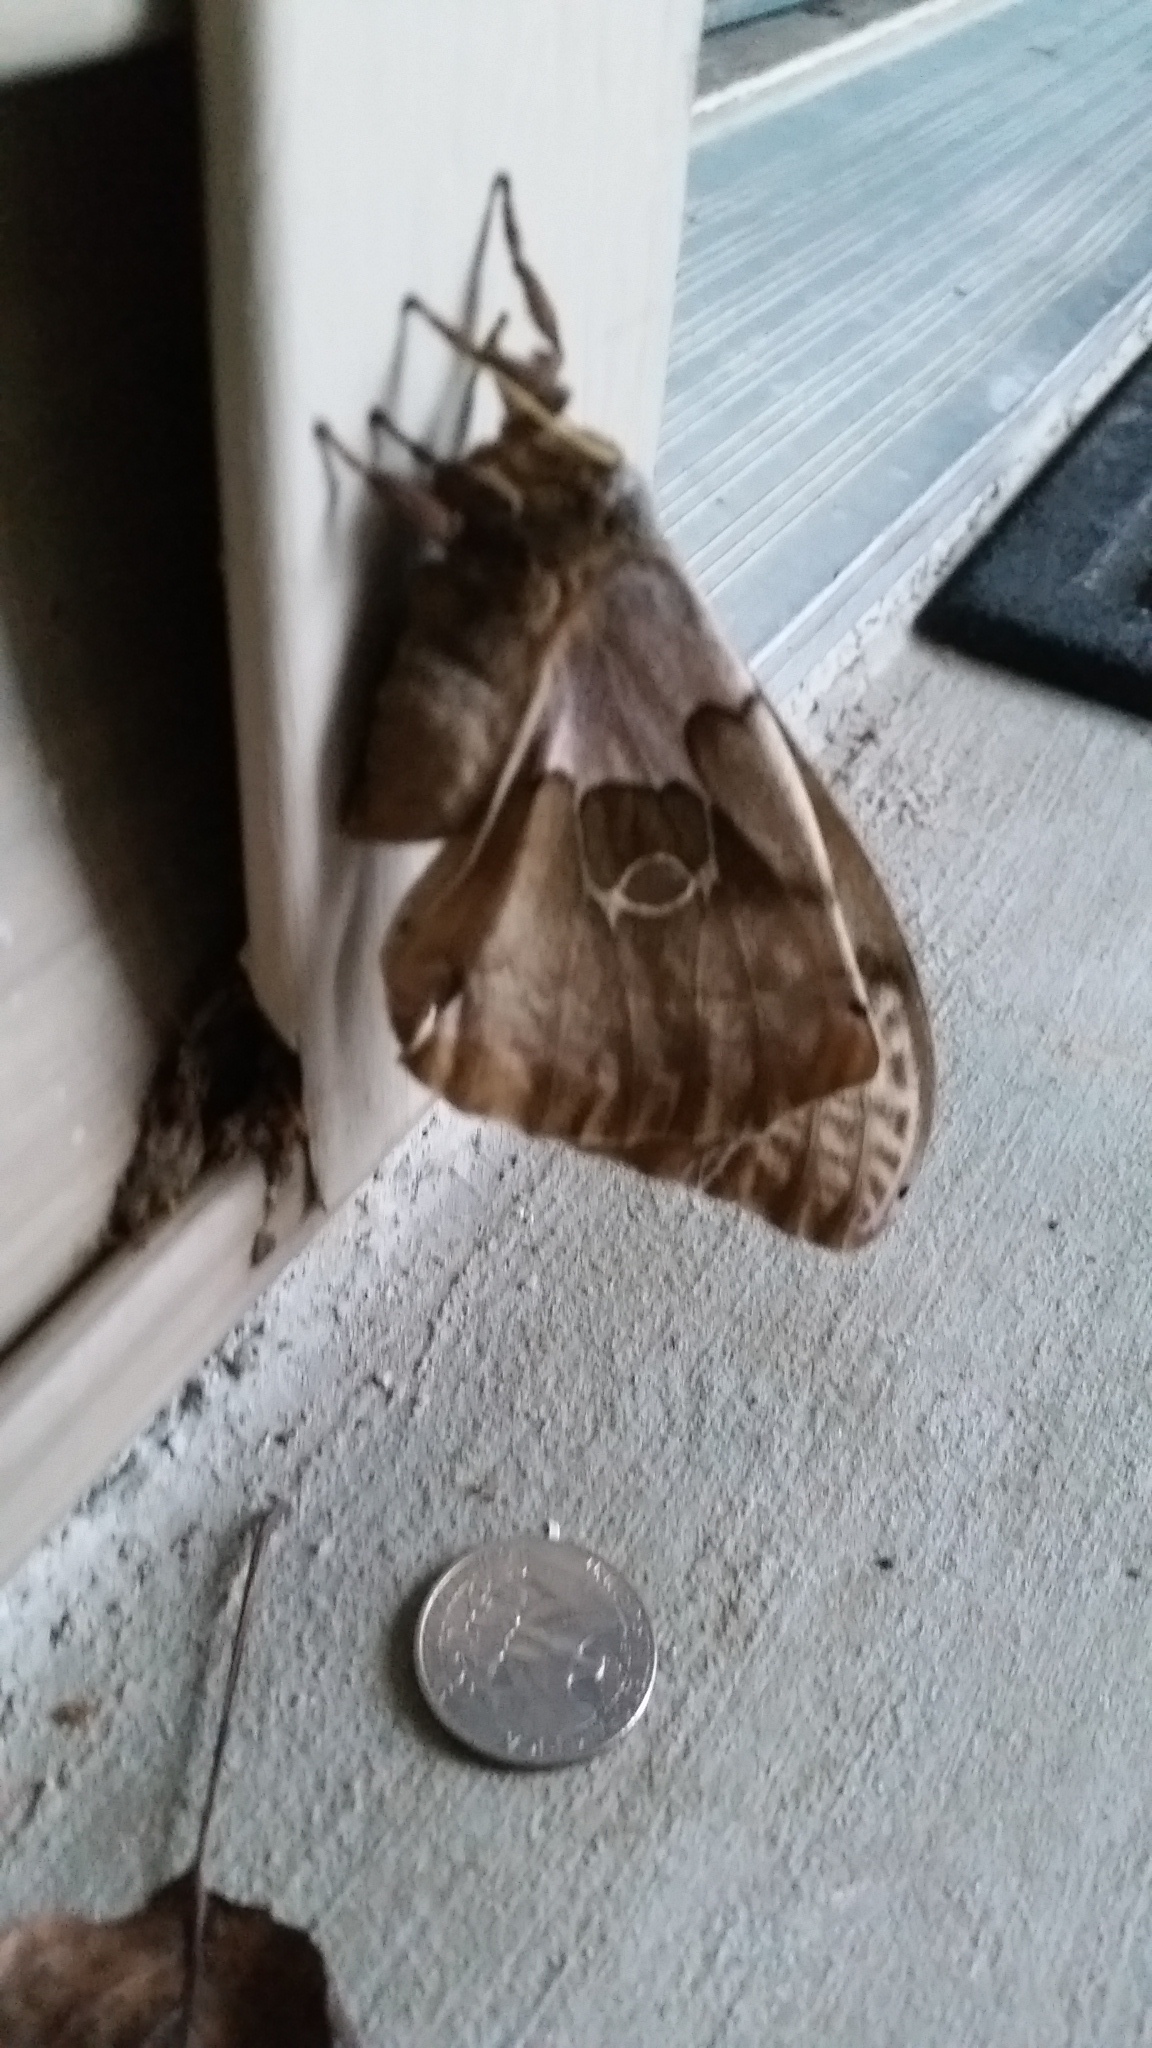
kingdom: Animalia
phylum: Arthropoda
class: Insecta
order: Lepidoptera
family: Saturniidae
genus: Antheraea
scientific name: Antheraea polyphemus
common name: Polyphemus moth
